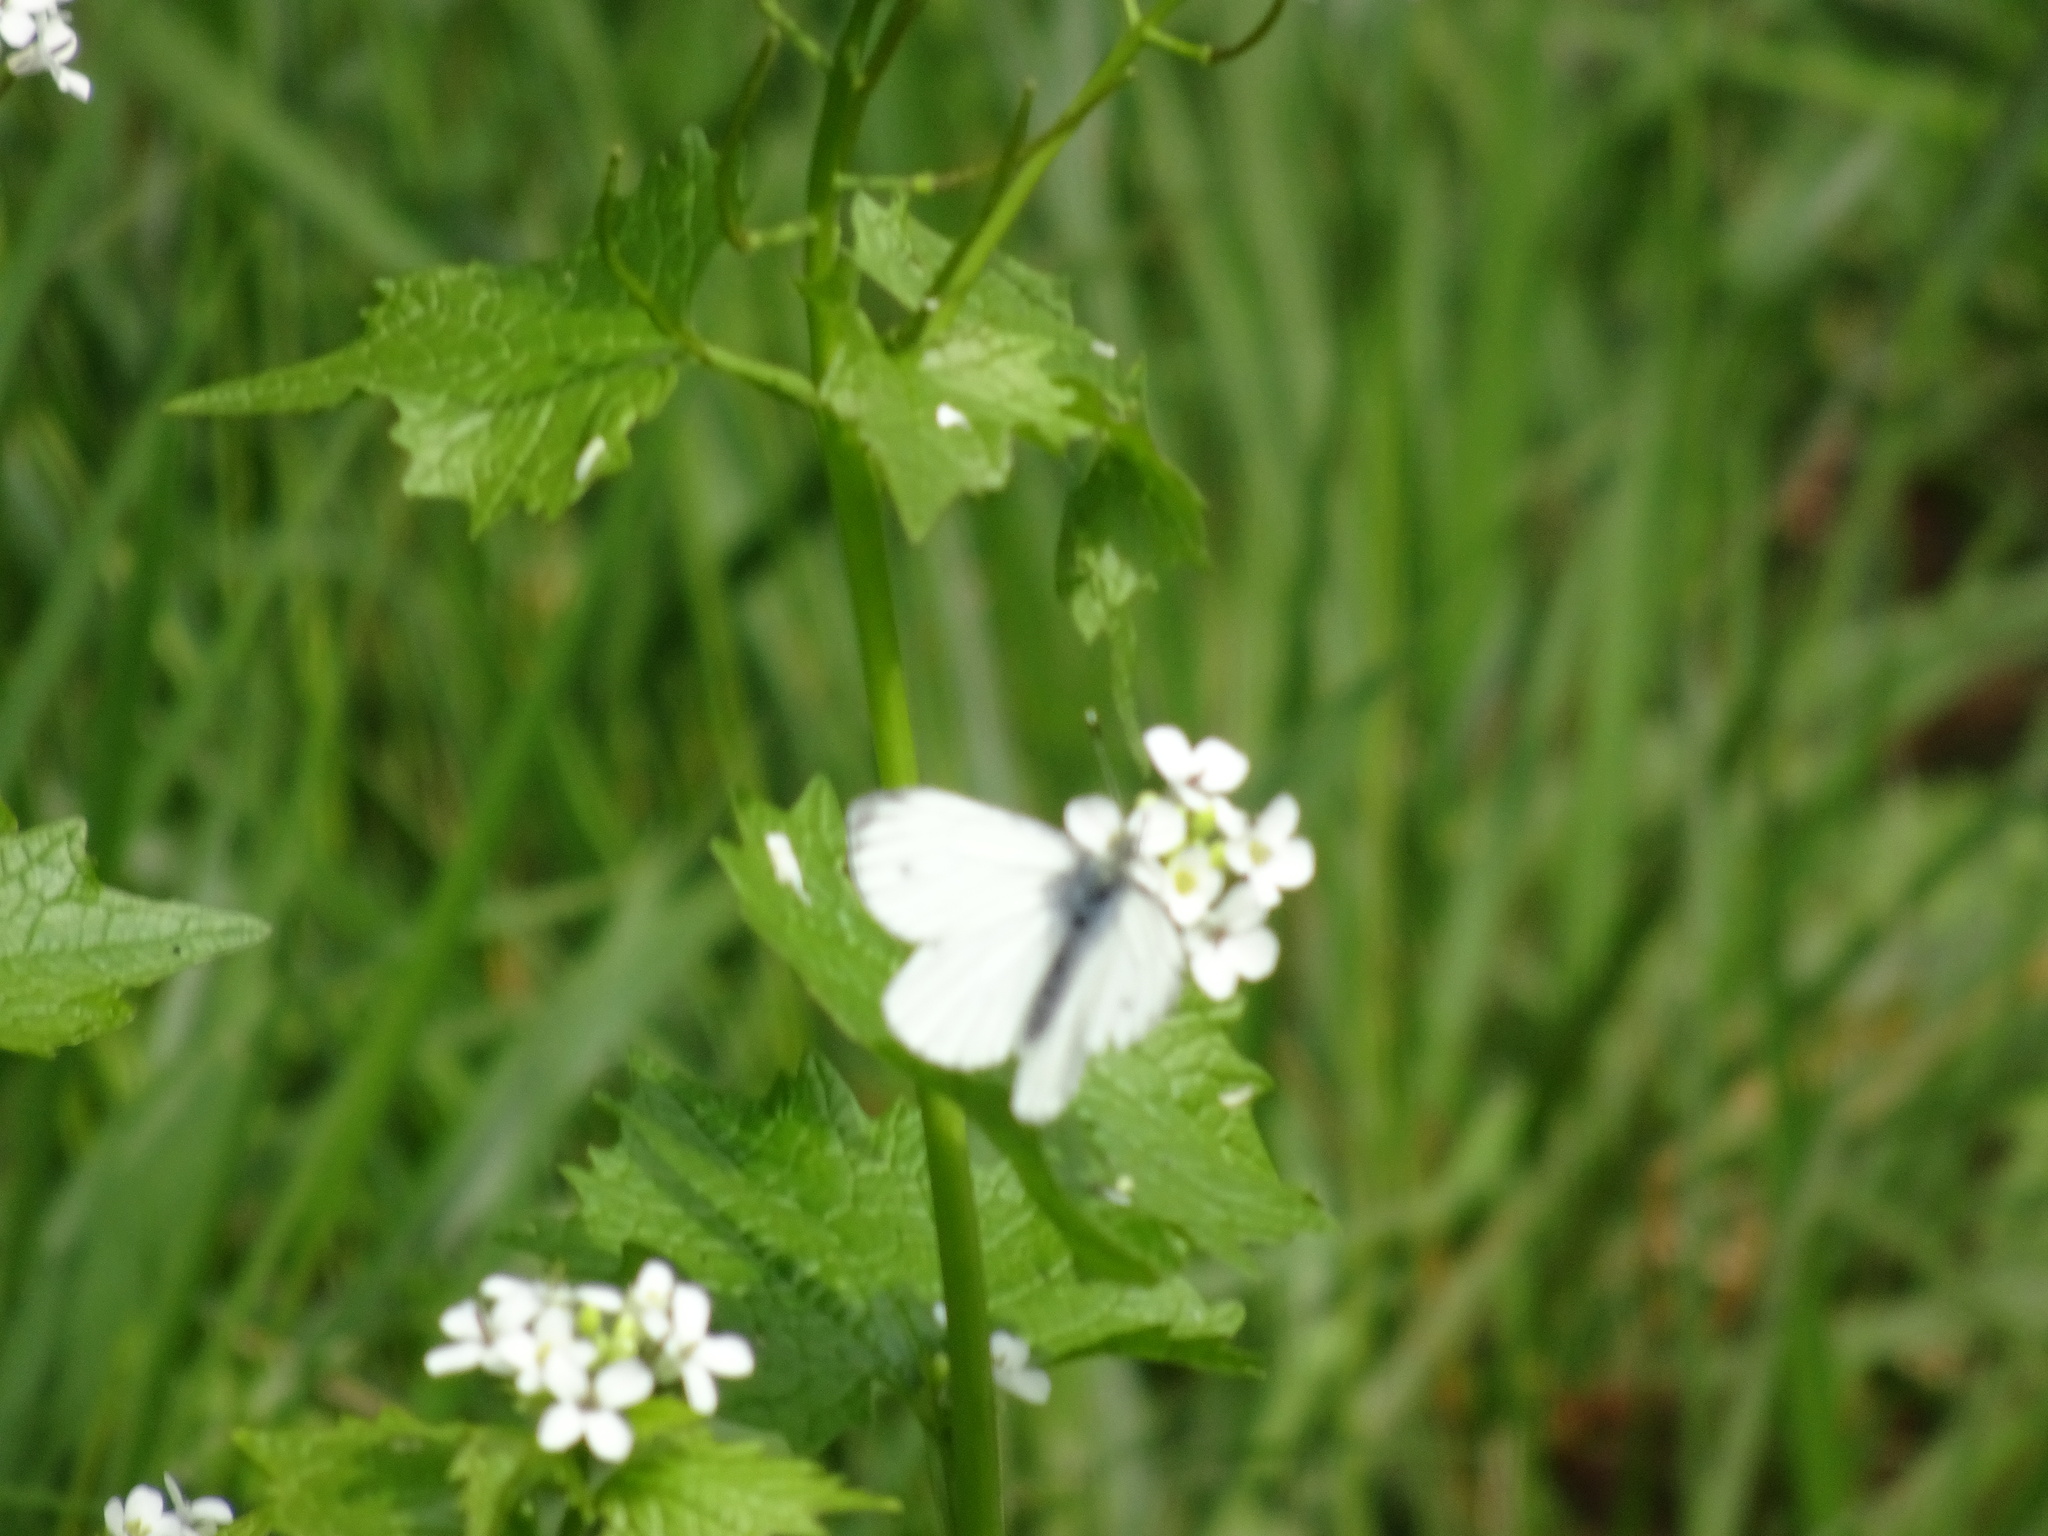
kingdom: Animalia
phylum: Arthropoda
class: Insecta
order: Lepidoptera
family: Pieridae
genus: Pieris
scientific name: Pieris napi
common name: Green-veined white
